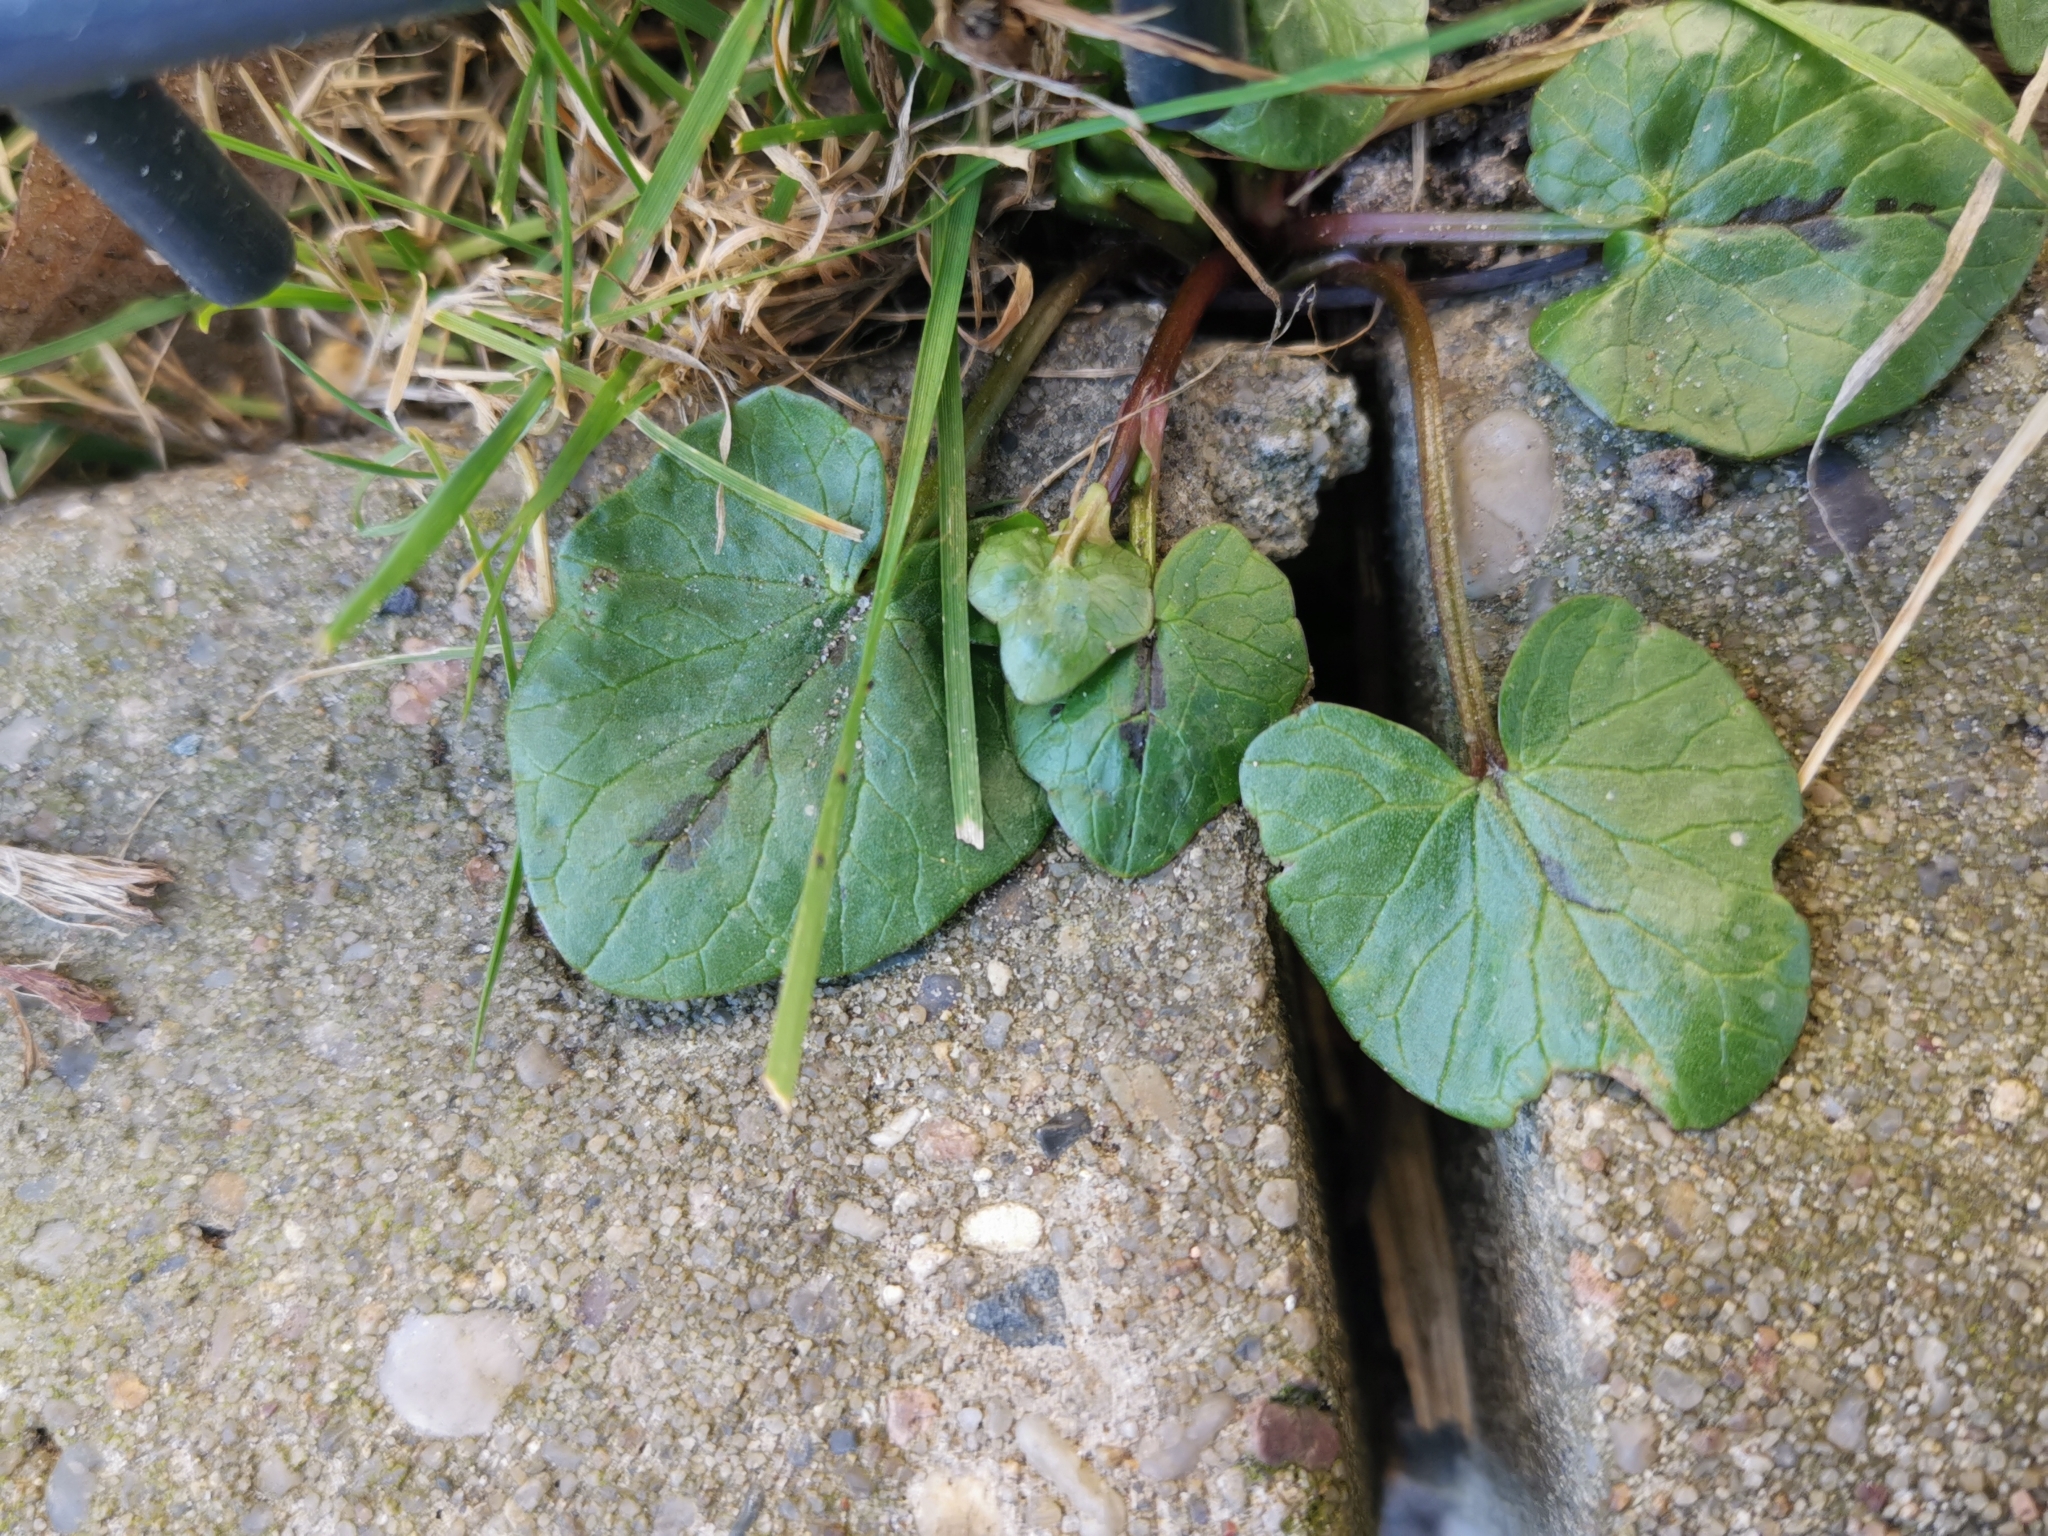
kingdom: Plantae
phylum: Tracheophyta
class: Magnoliopsida
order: Ranunculales
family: Ranunculaceae
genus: Ficaria
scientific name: Ficaria verna
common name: Lesser celandine
